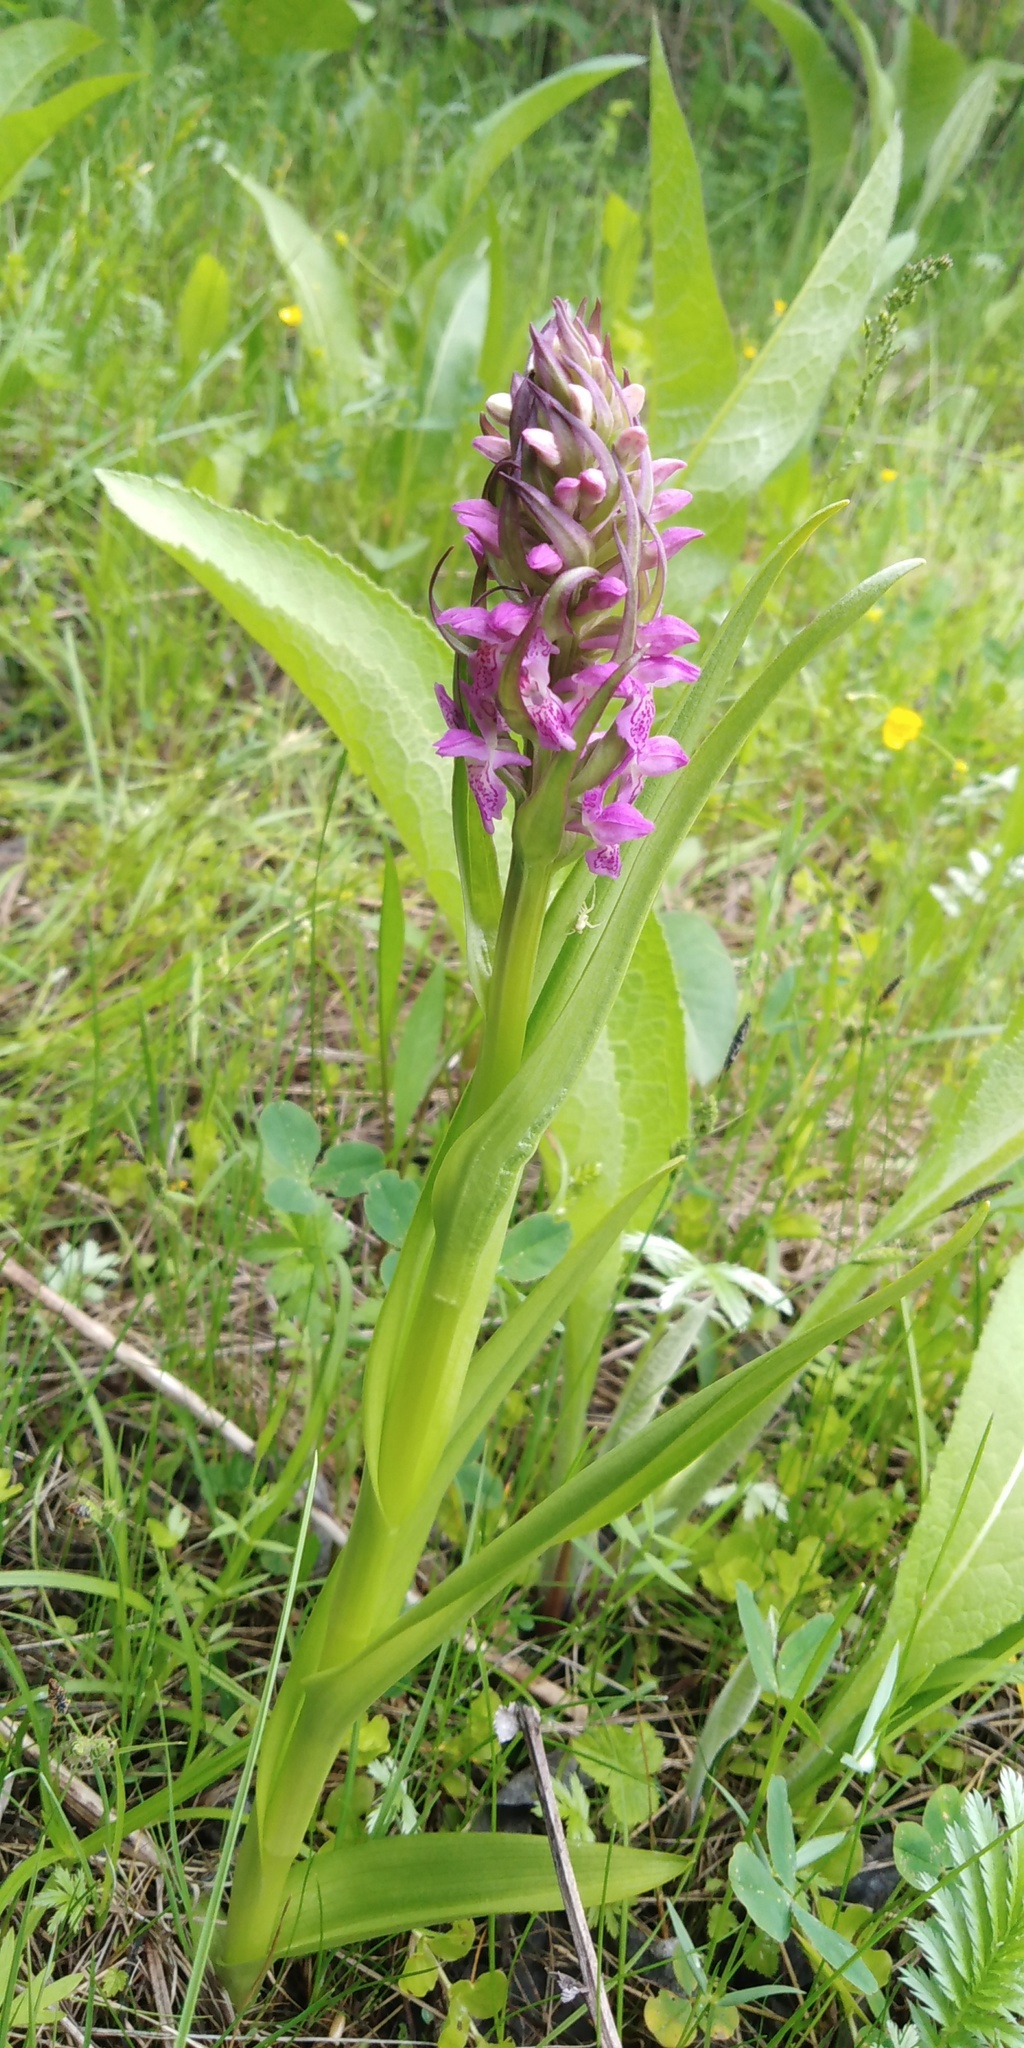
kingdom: Plantae
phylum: Tracheophyta
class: Liliopsida
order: Asparagales
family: Orchidaceae
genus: Dactylorhiza
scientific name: Dactylorhiza incarnata
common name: Early marsh-orchid
